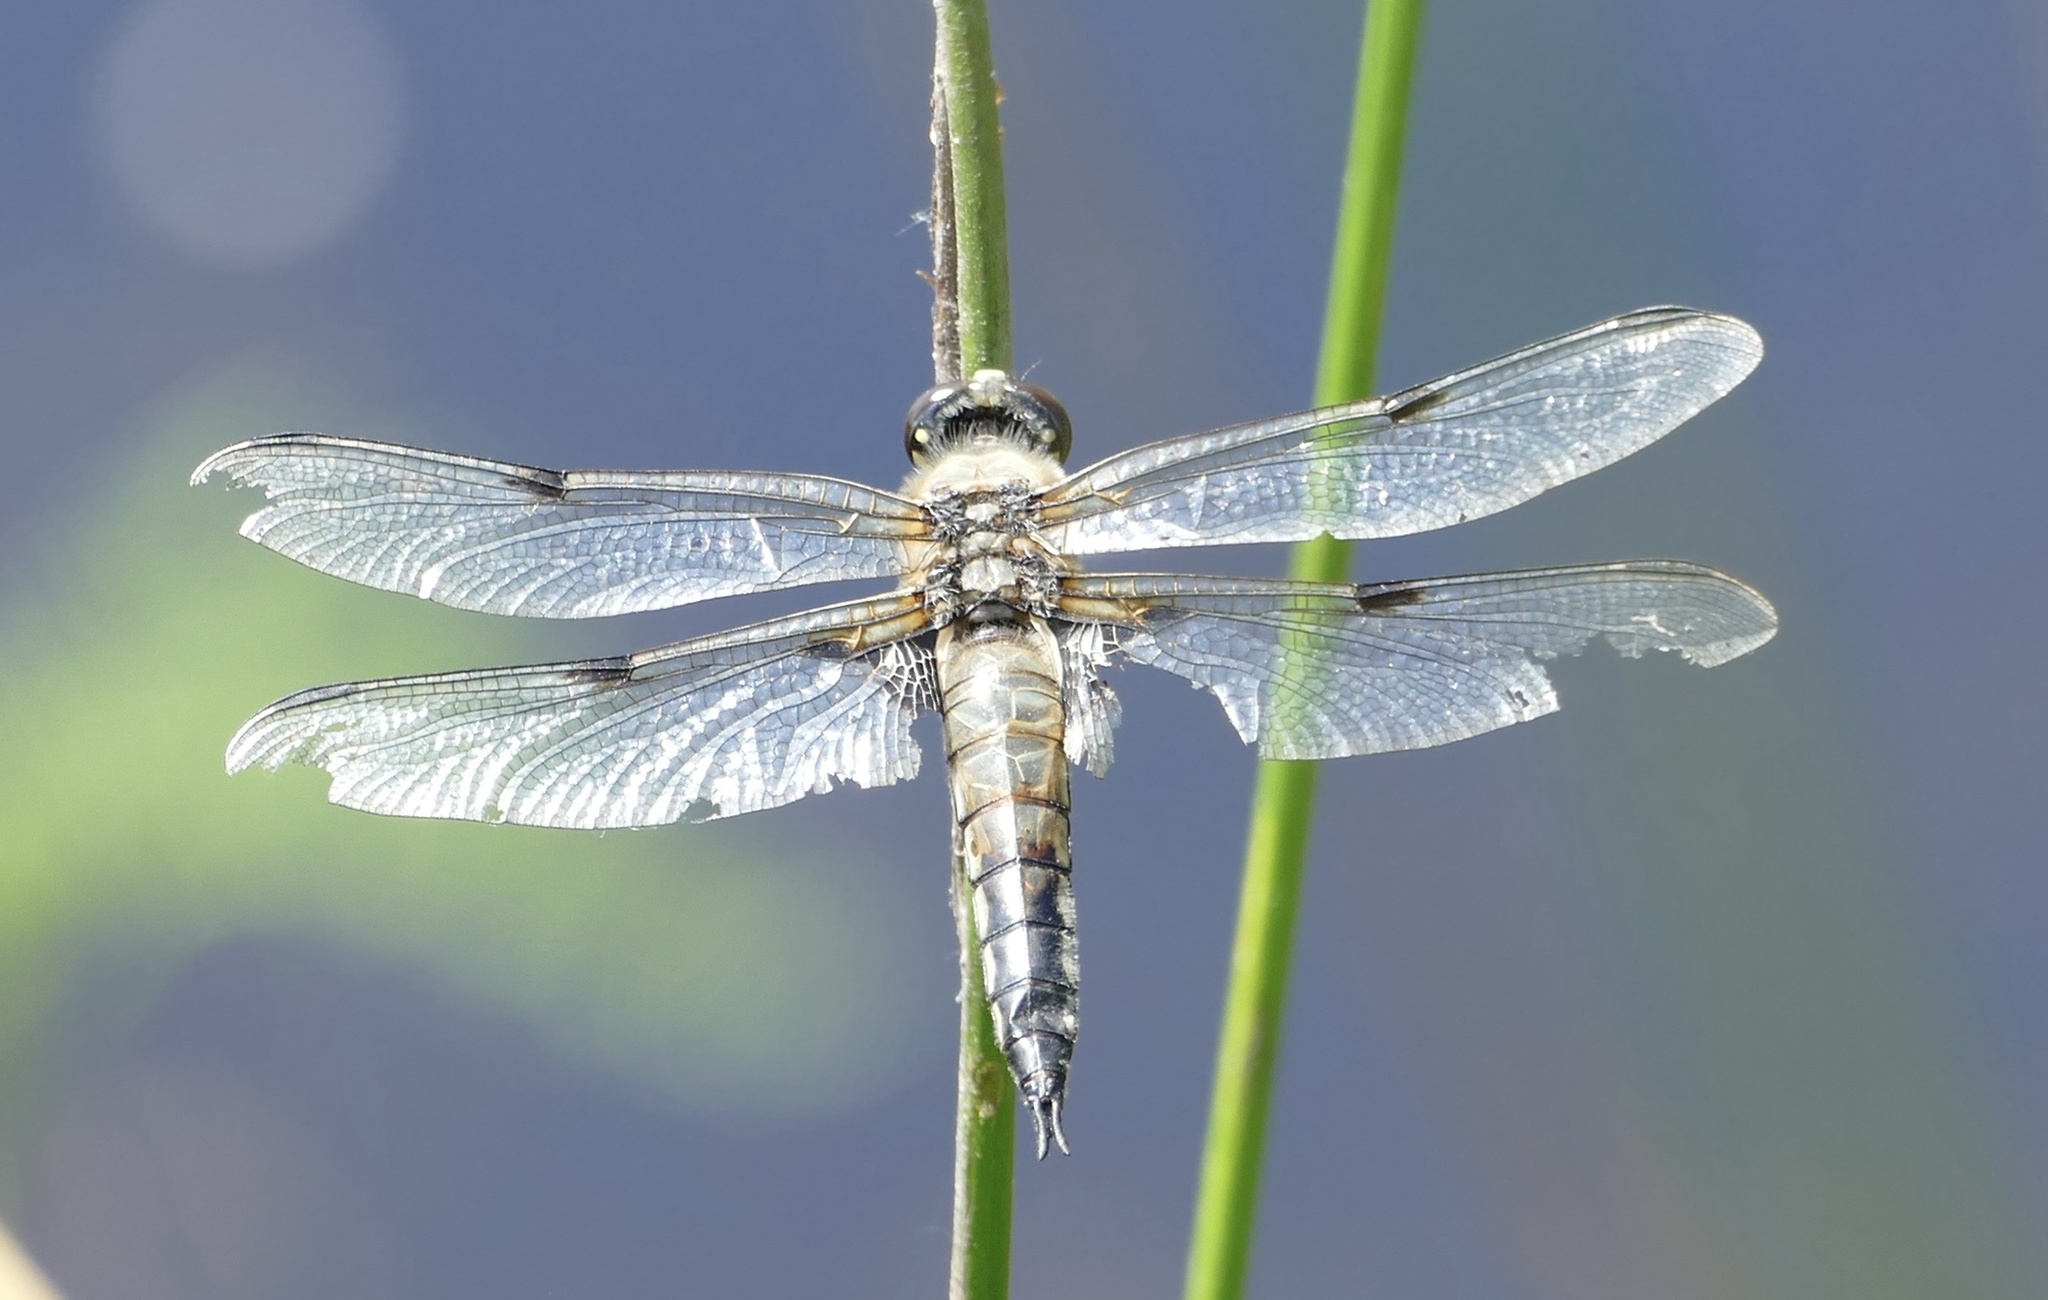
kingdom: Animalia
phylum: Arthropoda
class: Insecta
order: Odonata
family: Libellulidae
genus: Libellula
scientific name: Libellula quadrimaculata
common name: Four-spotted chaser
